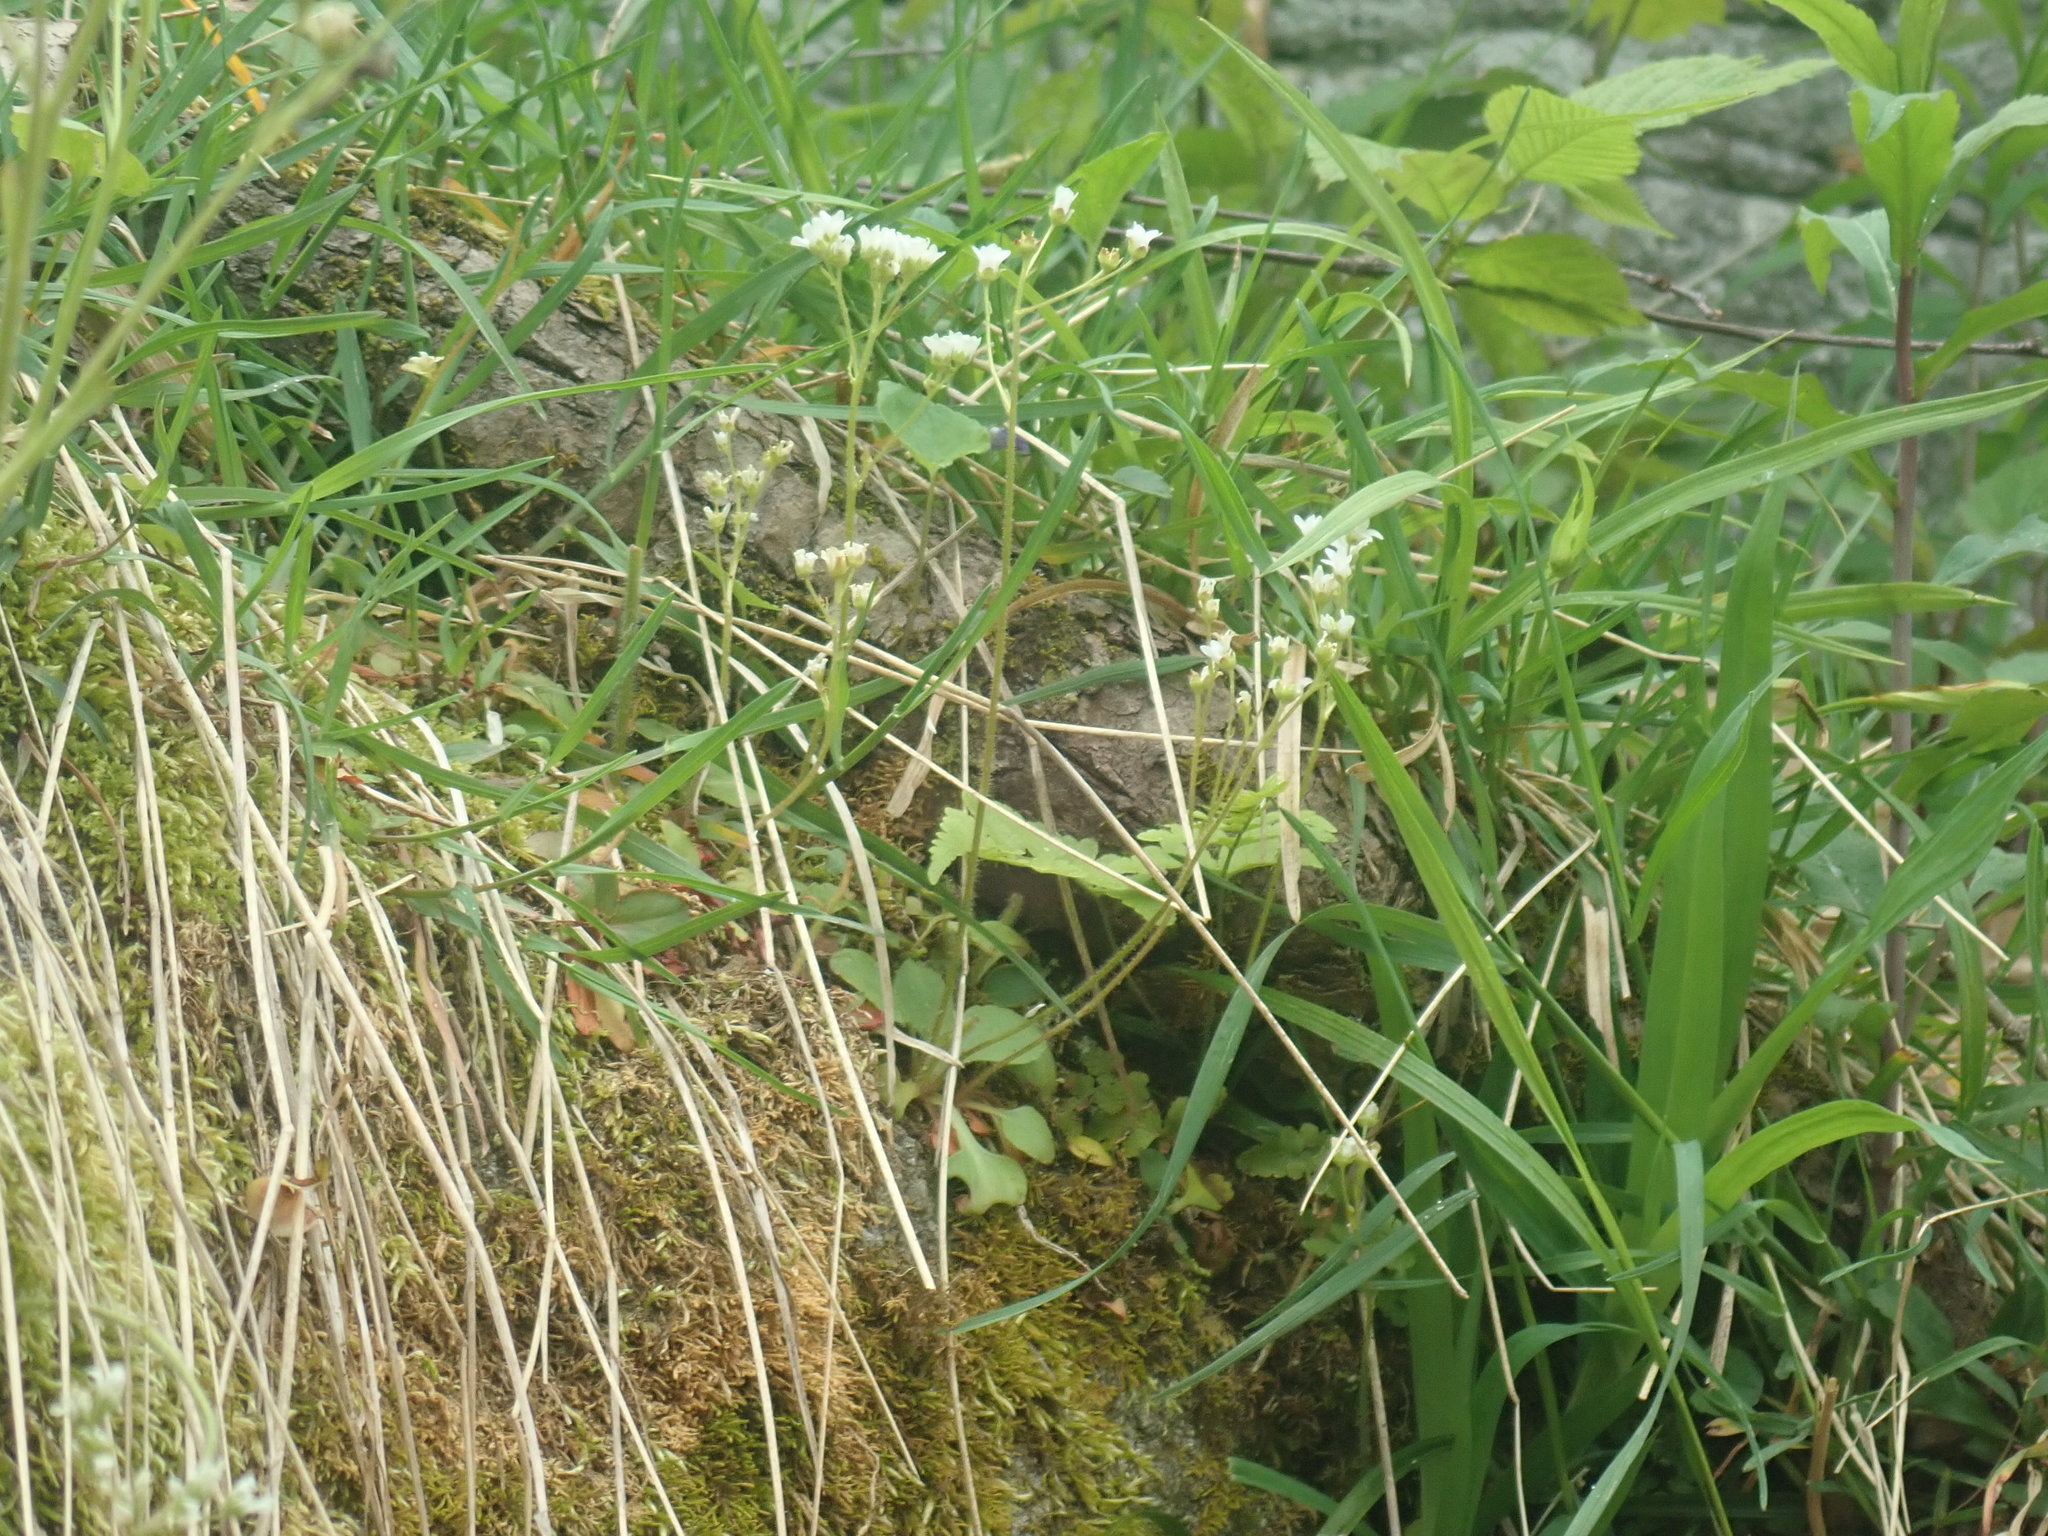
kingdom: Plantae
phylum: Tracheophyta
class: Magnoliopsida
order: Saxifragales
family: Saxifragaceae
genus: Micranthes
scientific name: Micranthes virginiensis
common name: Early saxifrage
